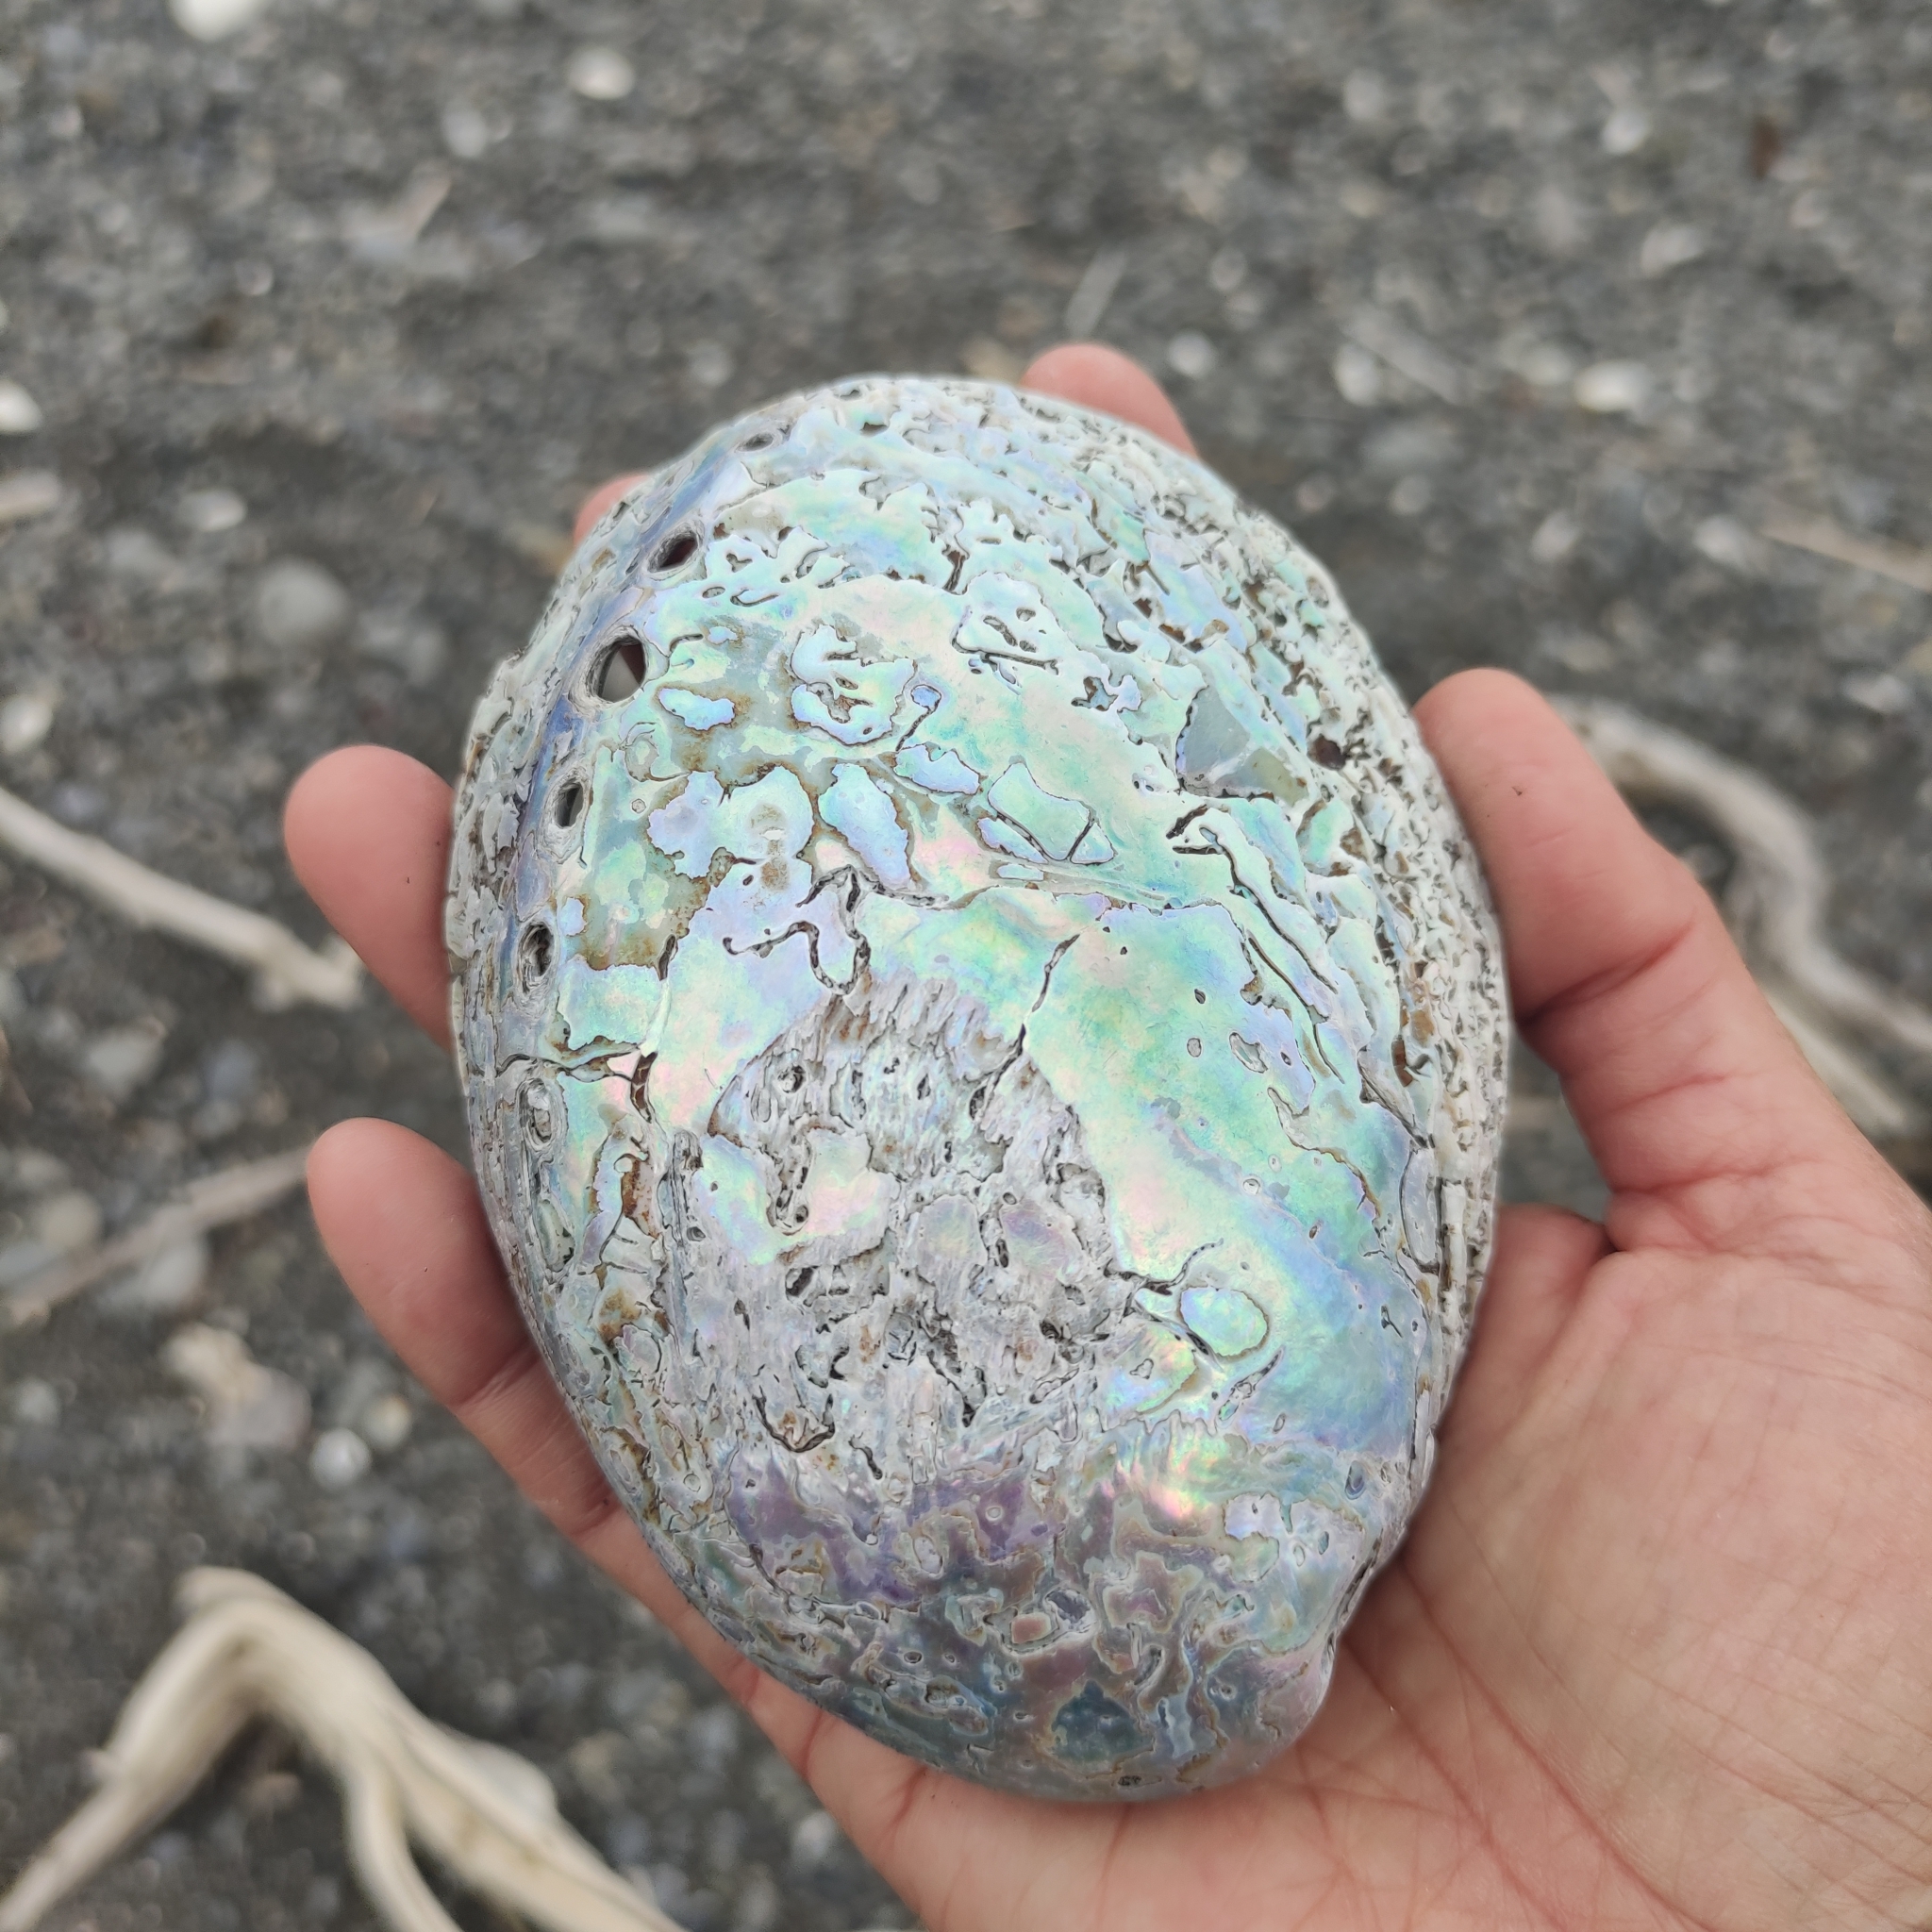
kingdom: Animalia
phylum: Mollusca
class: Gastropoda
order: Lepetellida
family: Haliotidae
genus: Haliotis
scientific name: Haliotis iris
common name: Abalone
